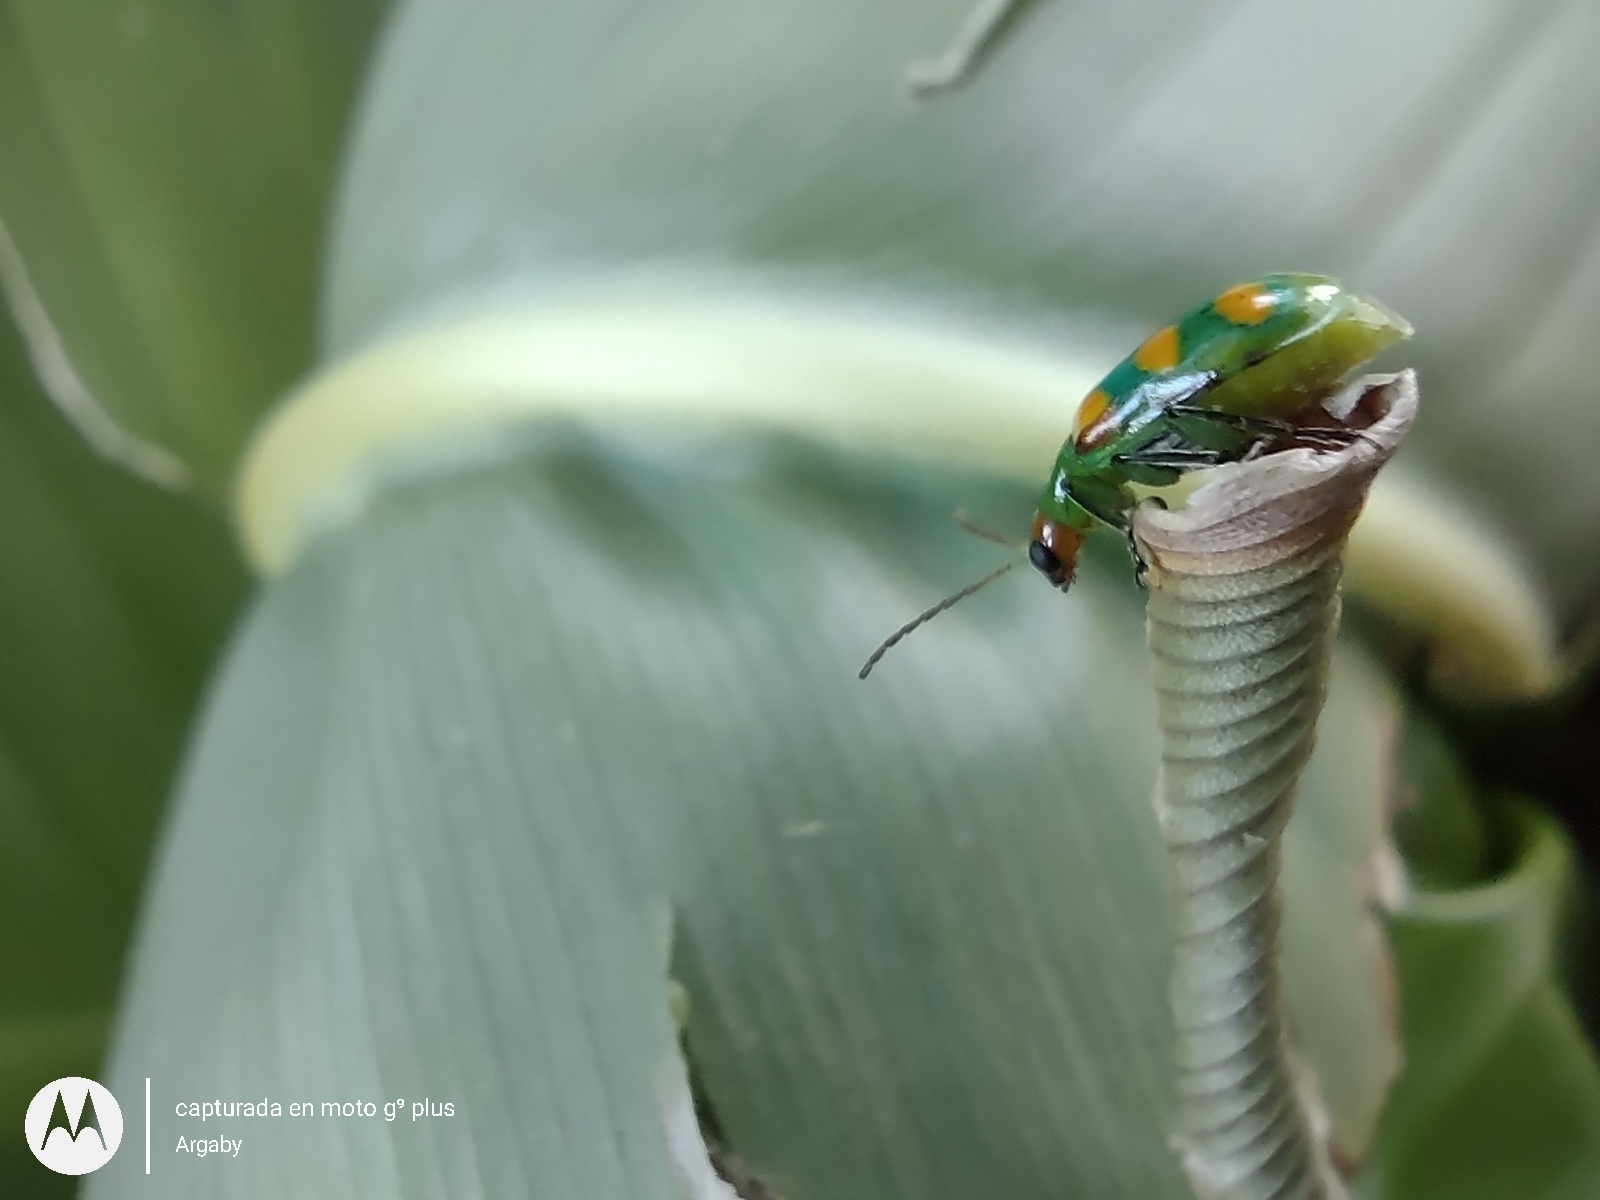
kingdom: Animalia
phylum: Arthropoda
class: Insecta
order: Coleoptera
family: Chrysomelidae
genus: Diabrotica
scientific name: Diabrotica speciosa
